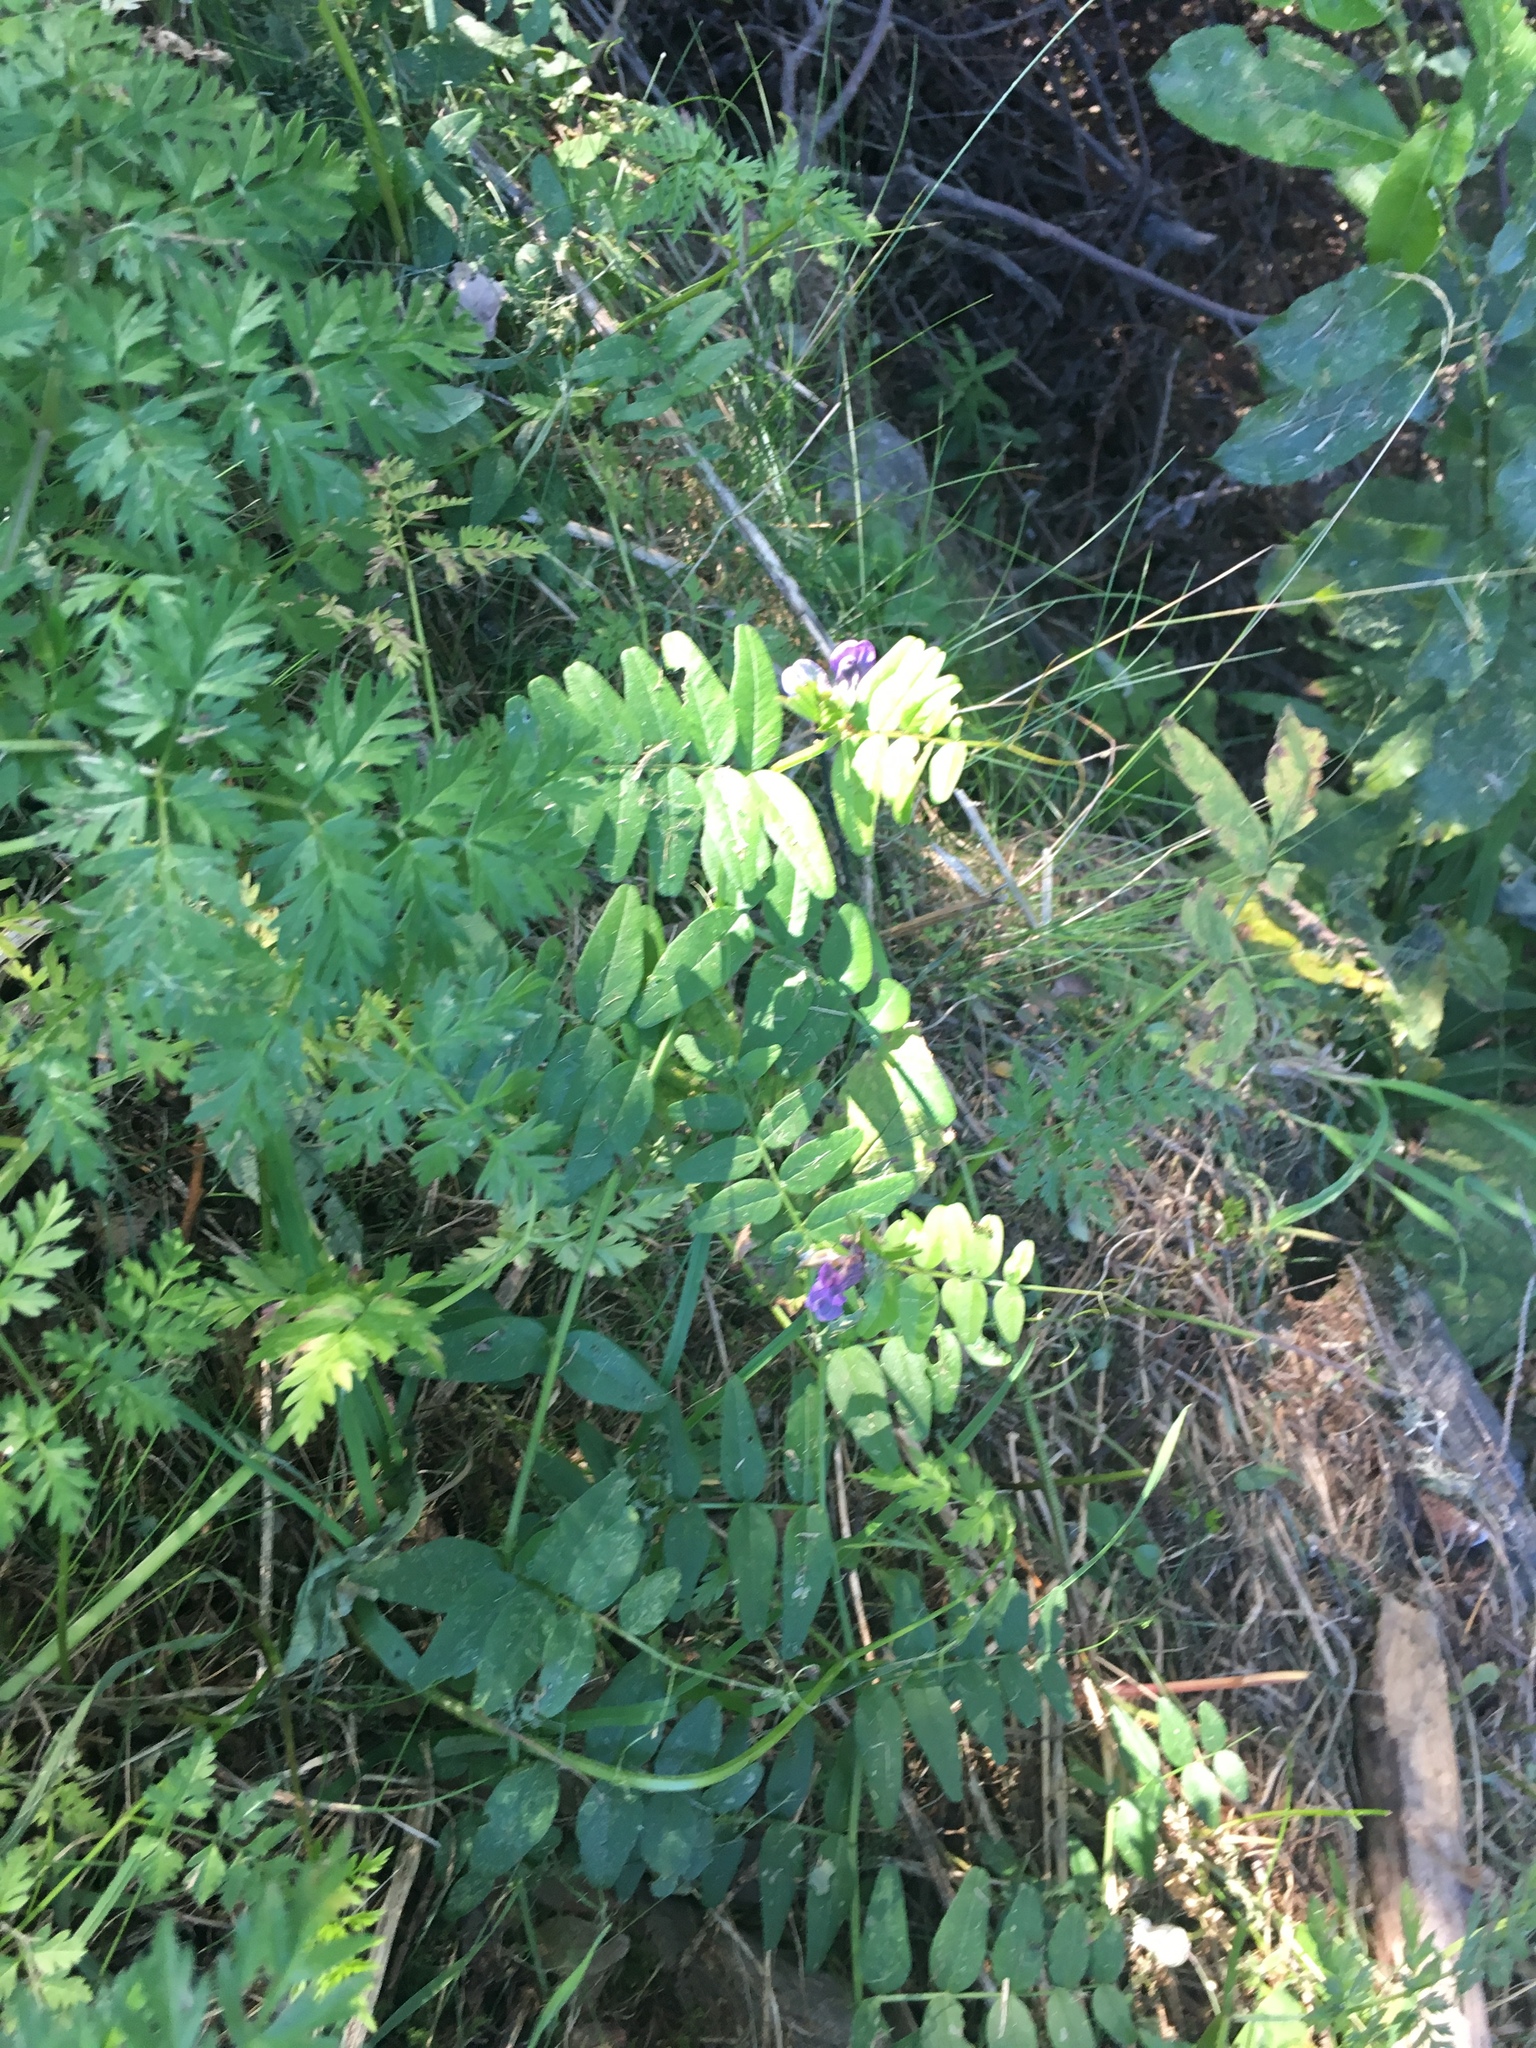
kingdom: Plantae
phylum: Tracheophyta
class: Magnoliopsida
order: Fabales
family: Fabaceae
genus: Vicia
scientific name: Vicia sepium
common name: Bush vetch
